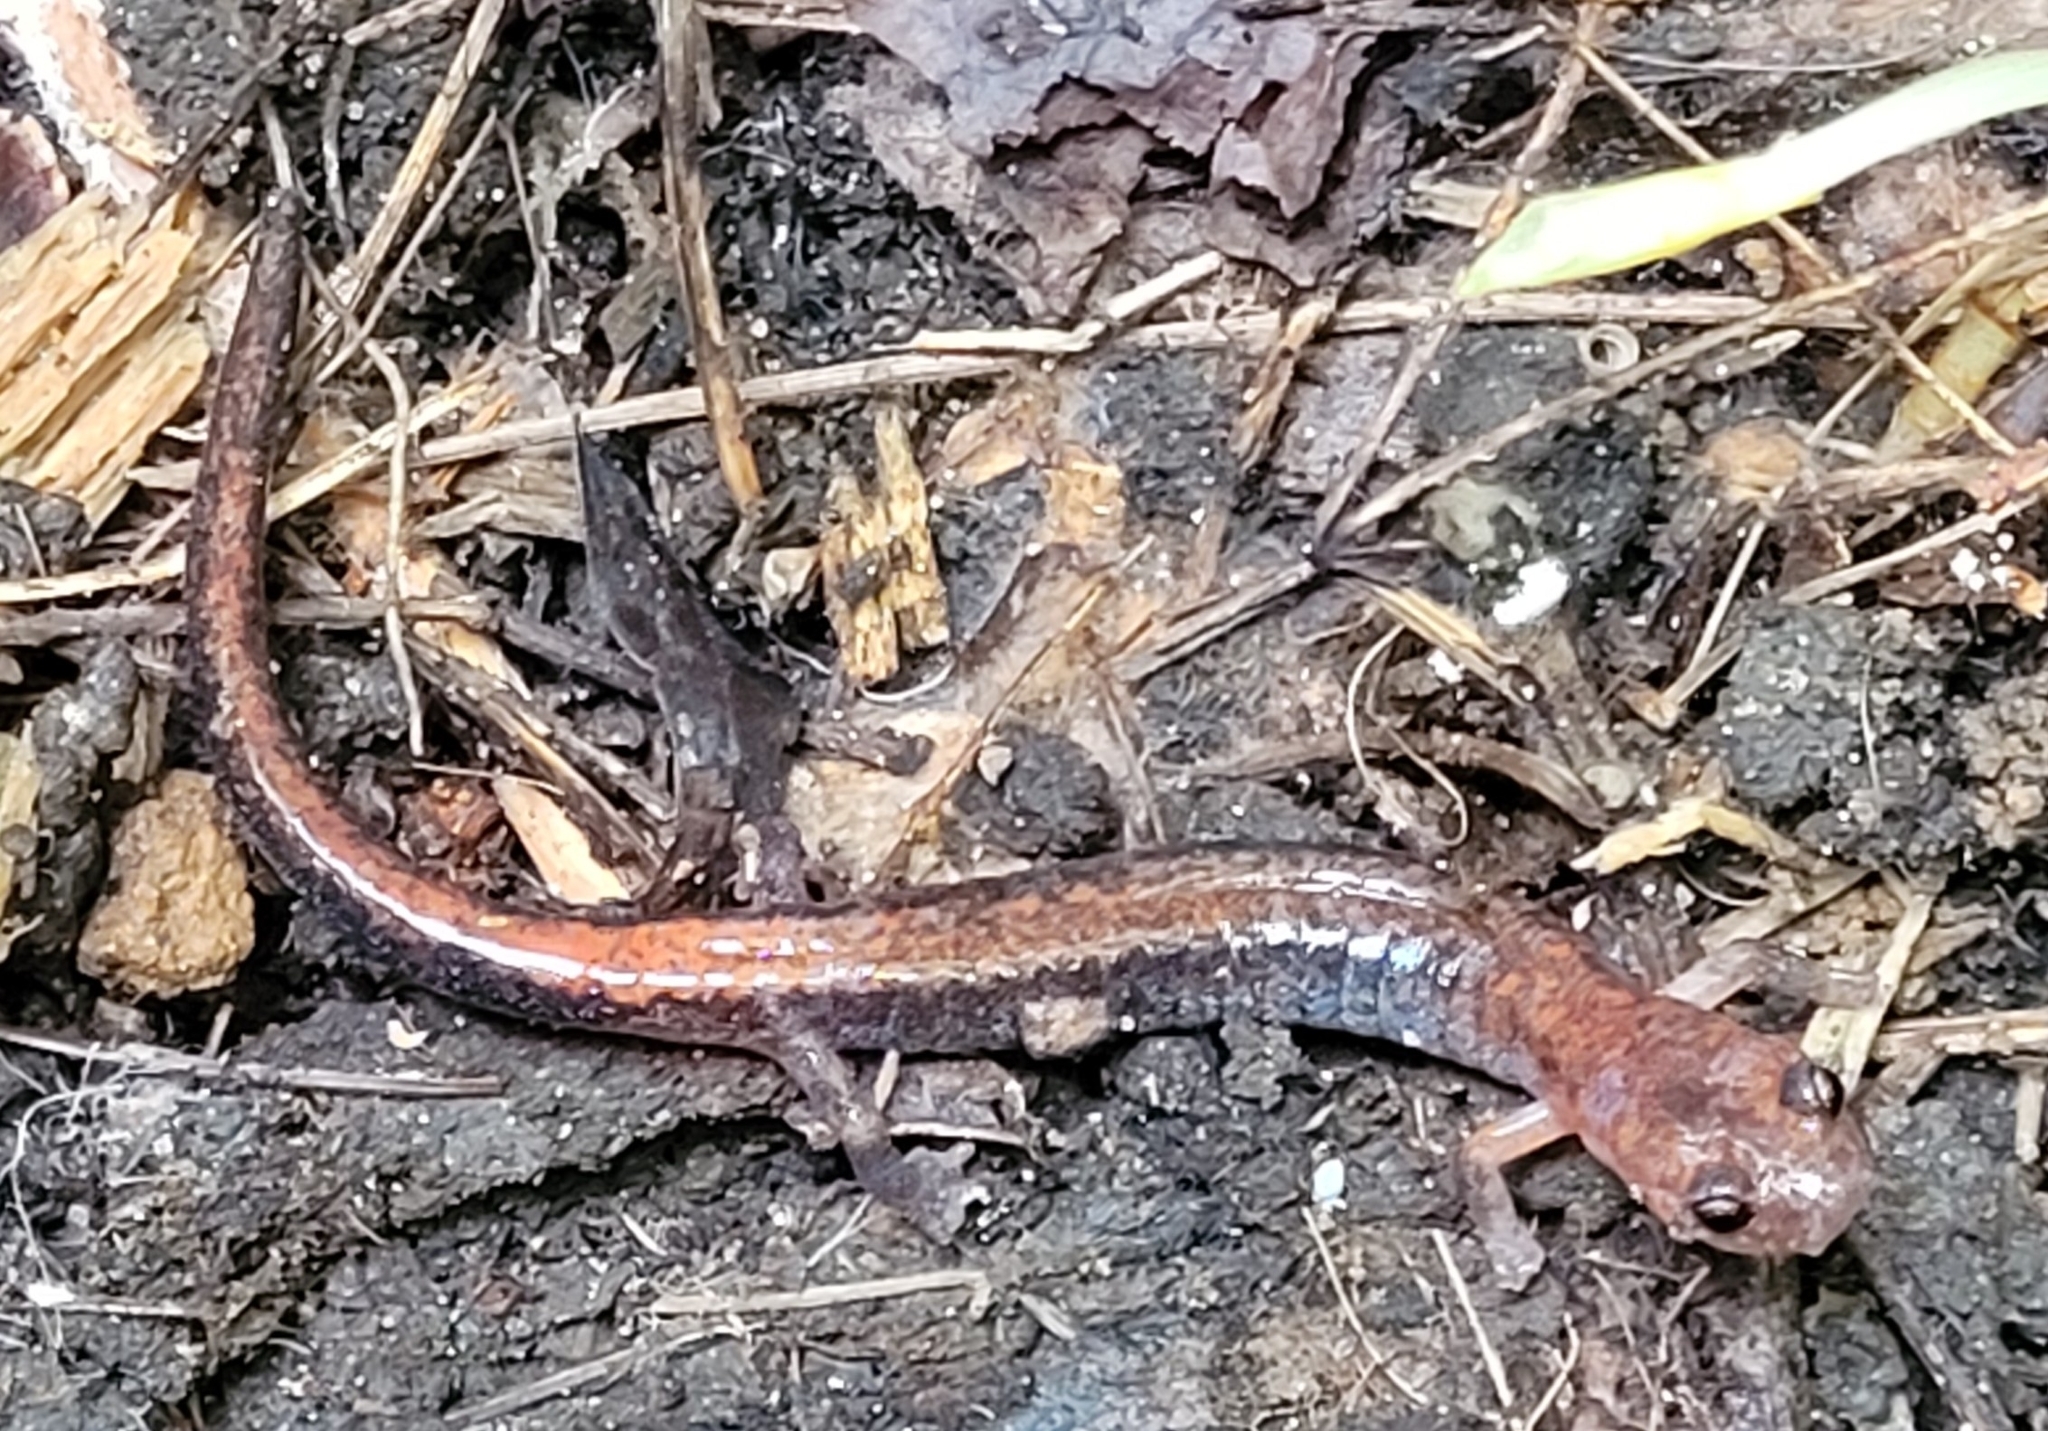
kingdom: Animalia
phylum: Chordata
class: Amphibia
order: Caudata
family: Plethodontidae
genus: Plethodon
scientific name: Plethodon cinereus
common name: Redback salamander
